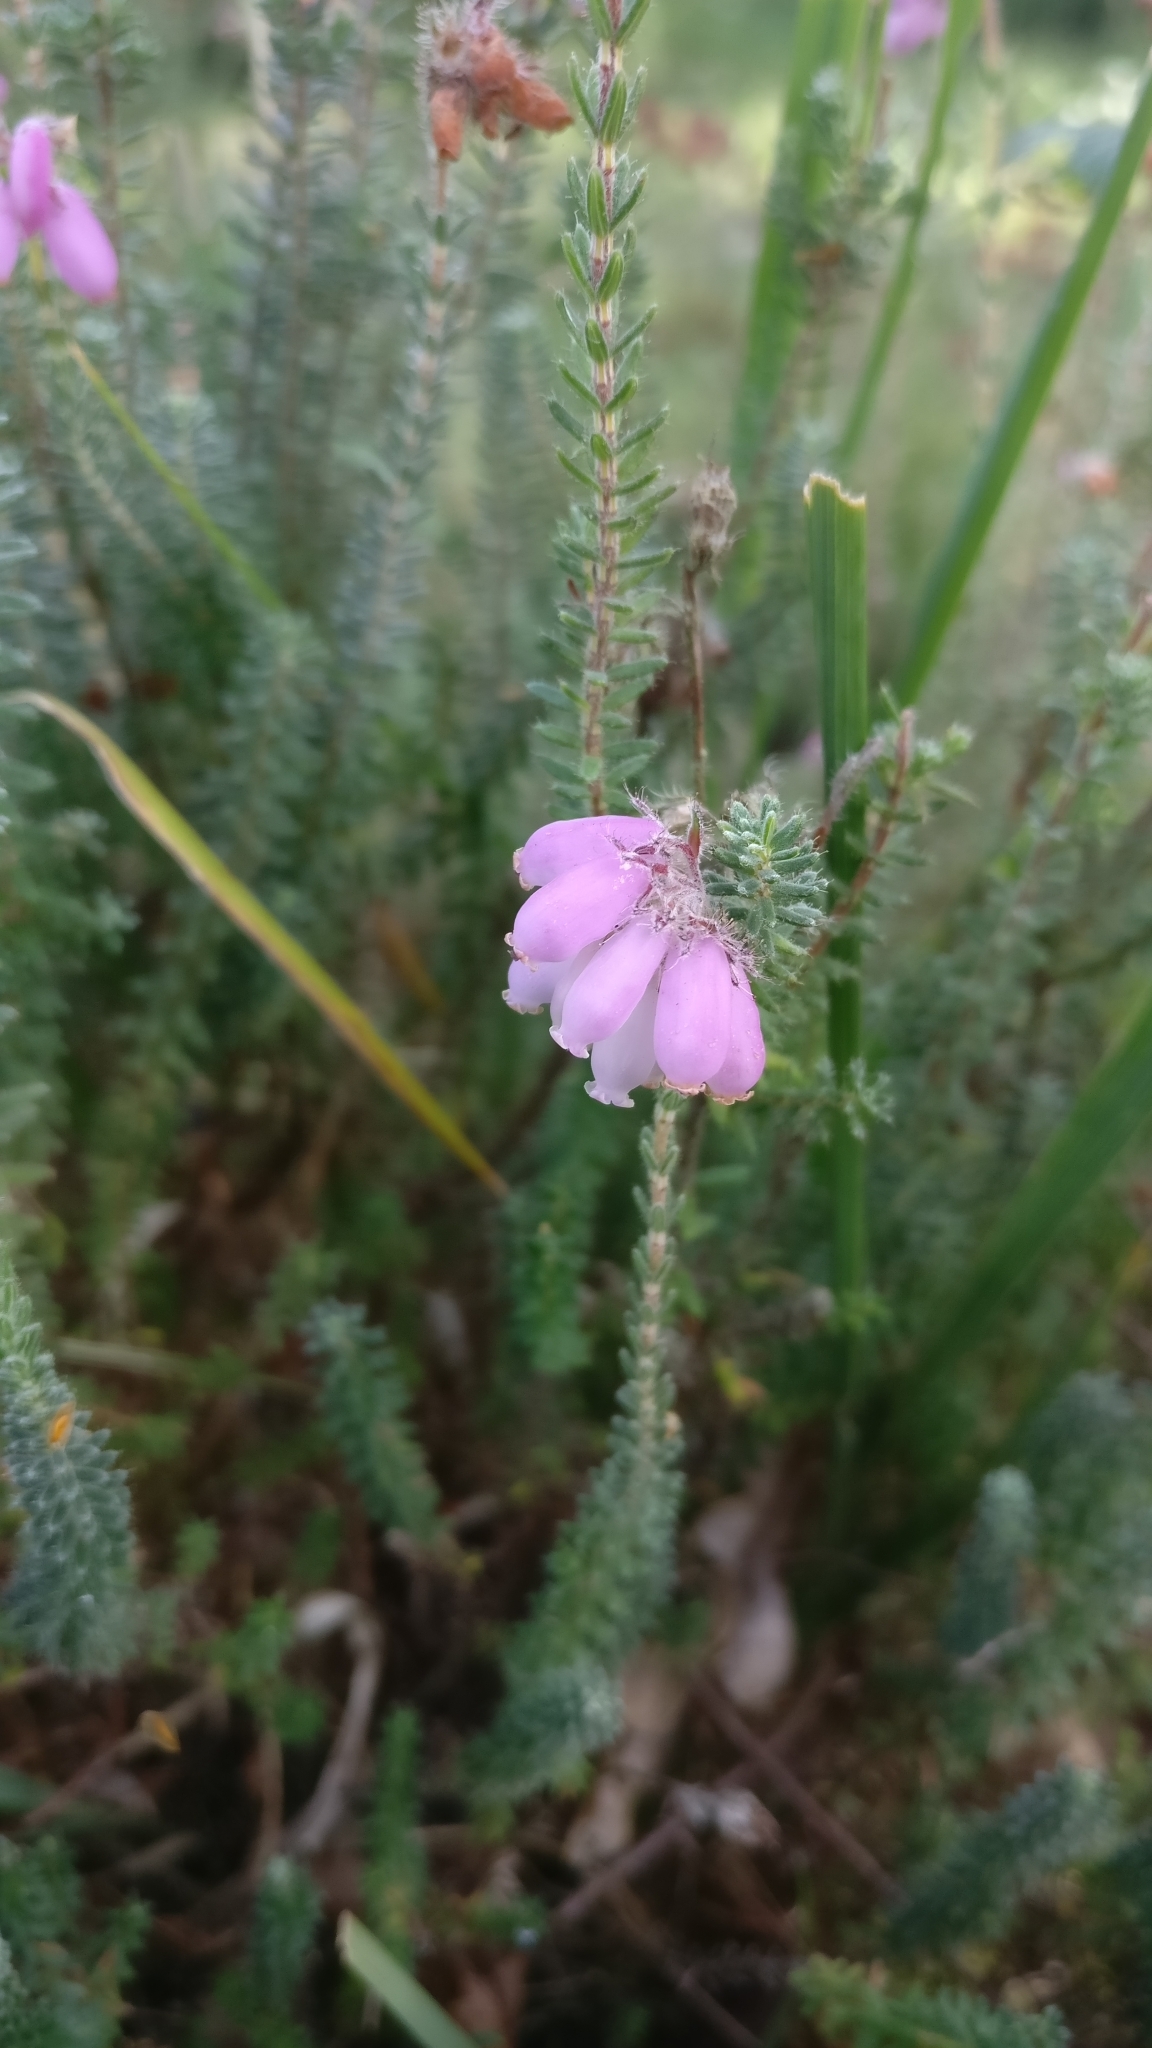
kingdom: Plantae
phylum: Tracheophyta
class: Magnoliopsida
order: Ericales
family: Ericaceae
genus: Erica
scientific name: Erica tetralix
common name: Cross-leaved heath
